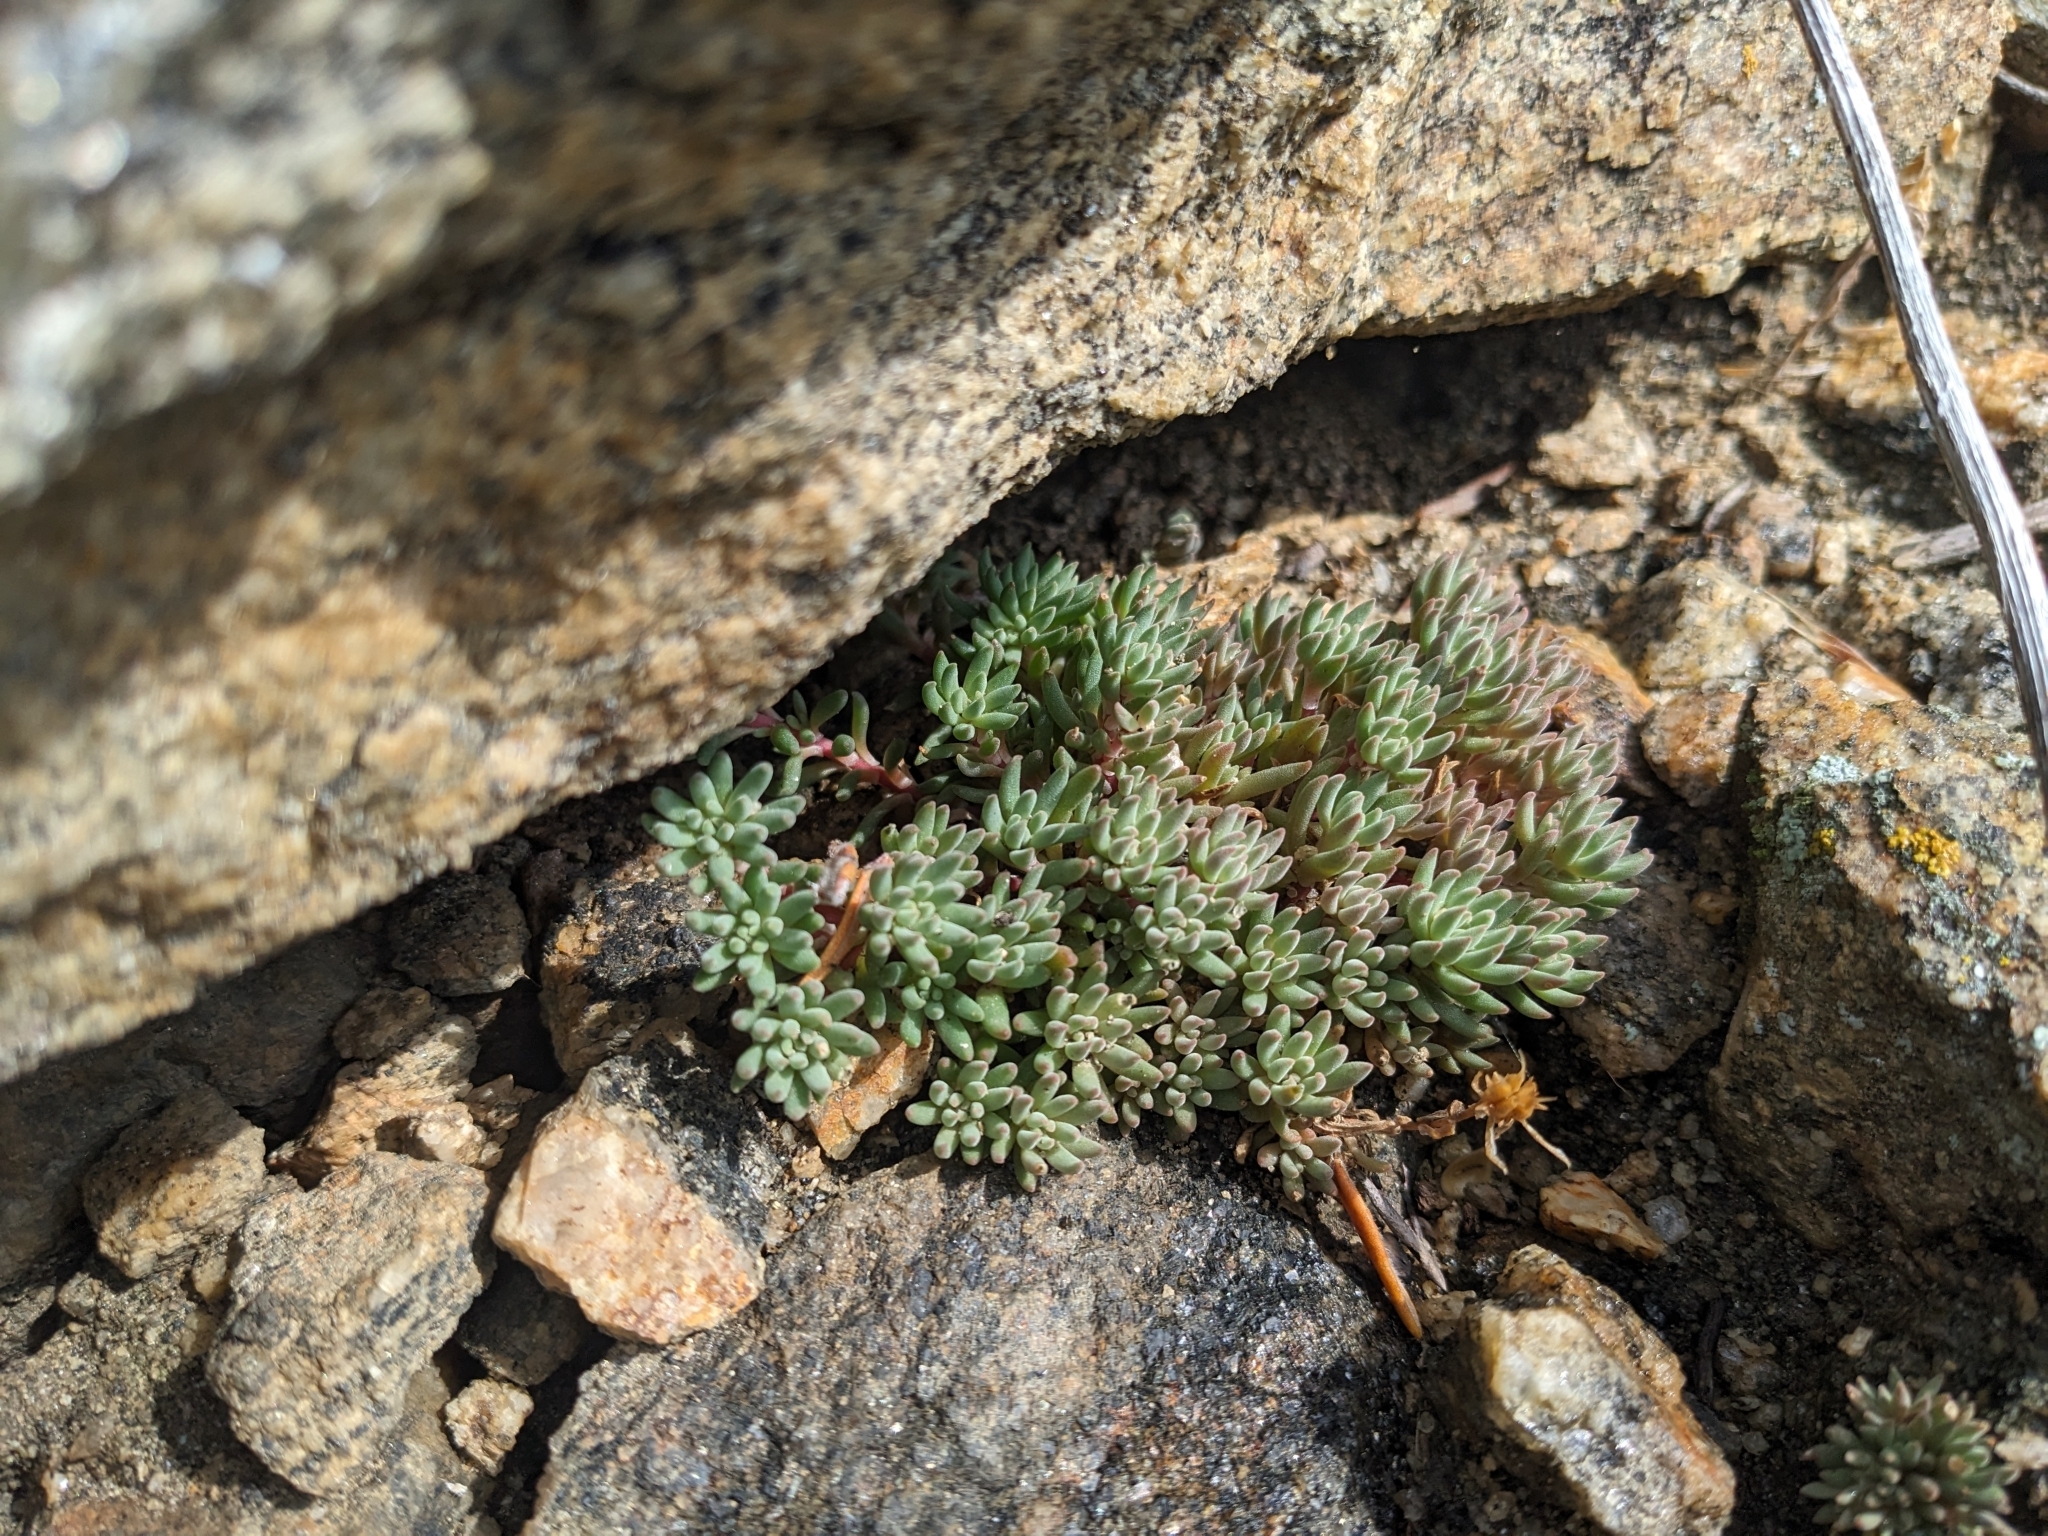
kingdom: Plantae
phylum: Tracheophyta
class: Magnoliopsida
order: Saxifragales
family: Crassulaceae
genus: Sedum
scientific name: Sedum lanceolatum
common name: Common stonecrop
